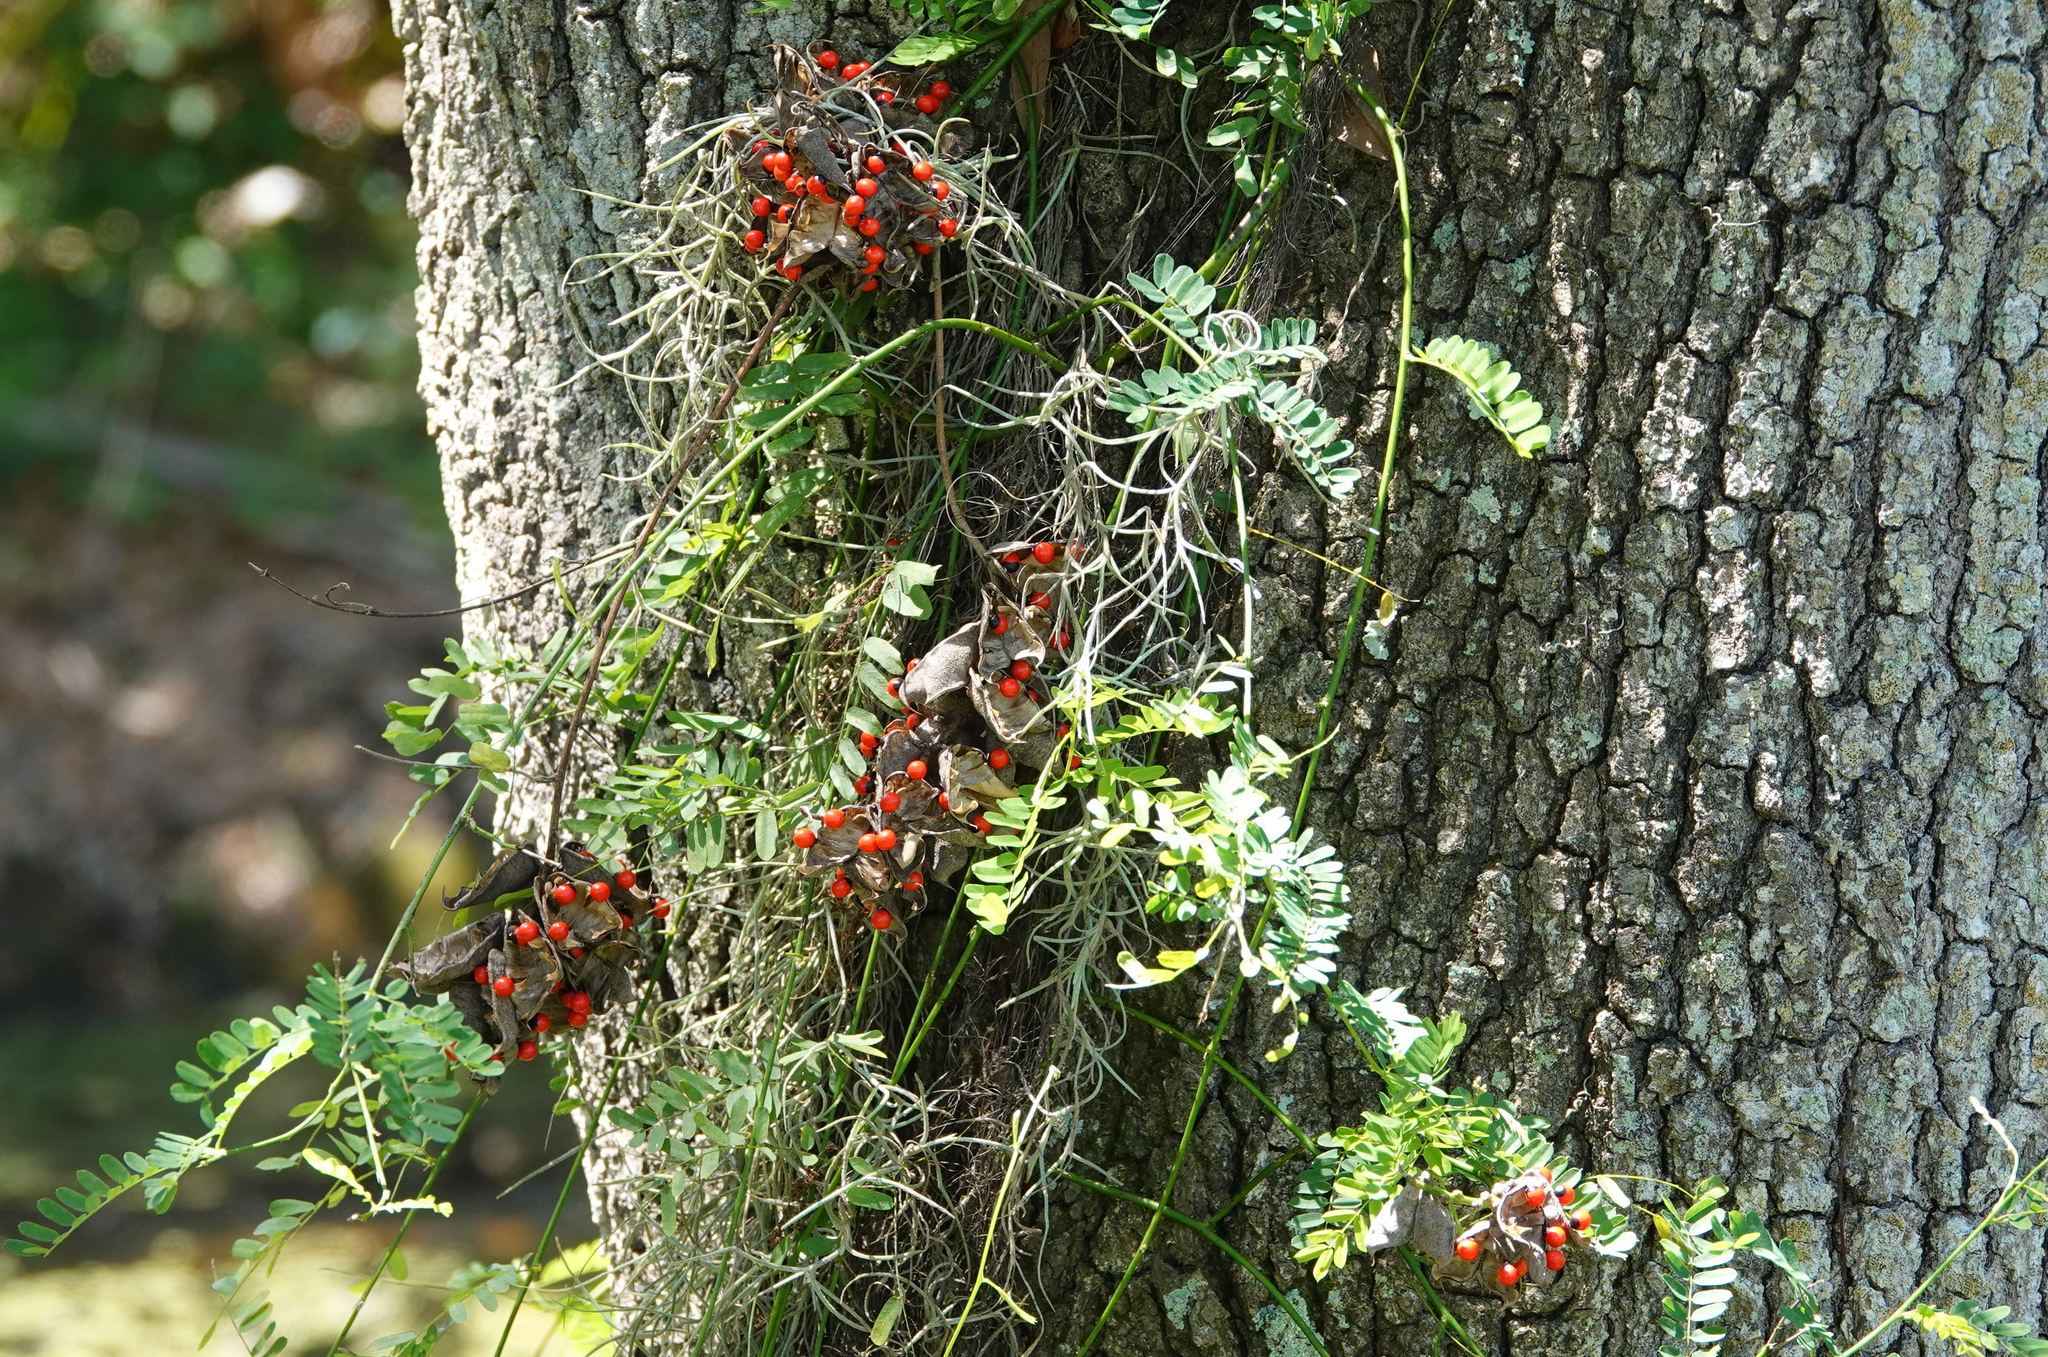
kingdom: Plantae
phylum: Tracheophyta
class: Magnoliopsida
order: Fabales
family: Fabaceae
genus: Abrus
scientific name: Abrus precatorius
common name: Rosarypea
